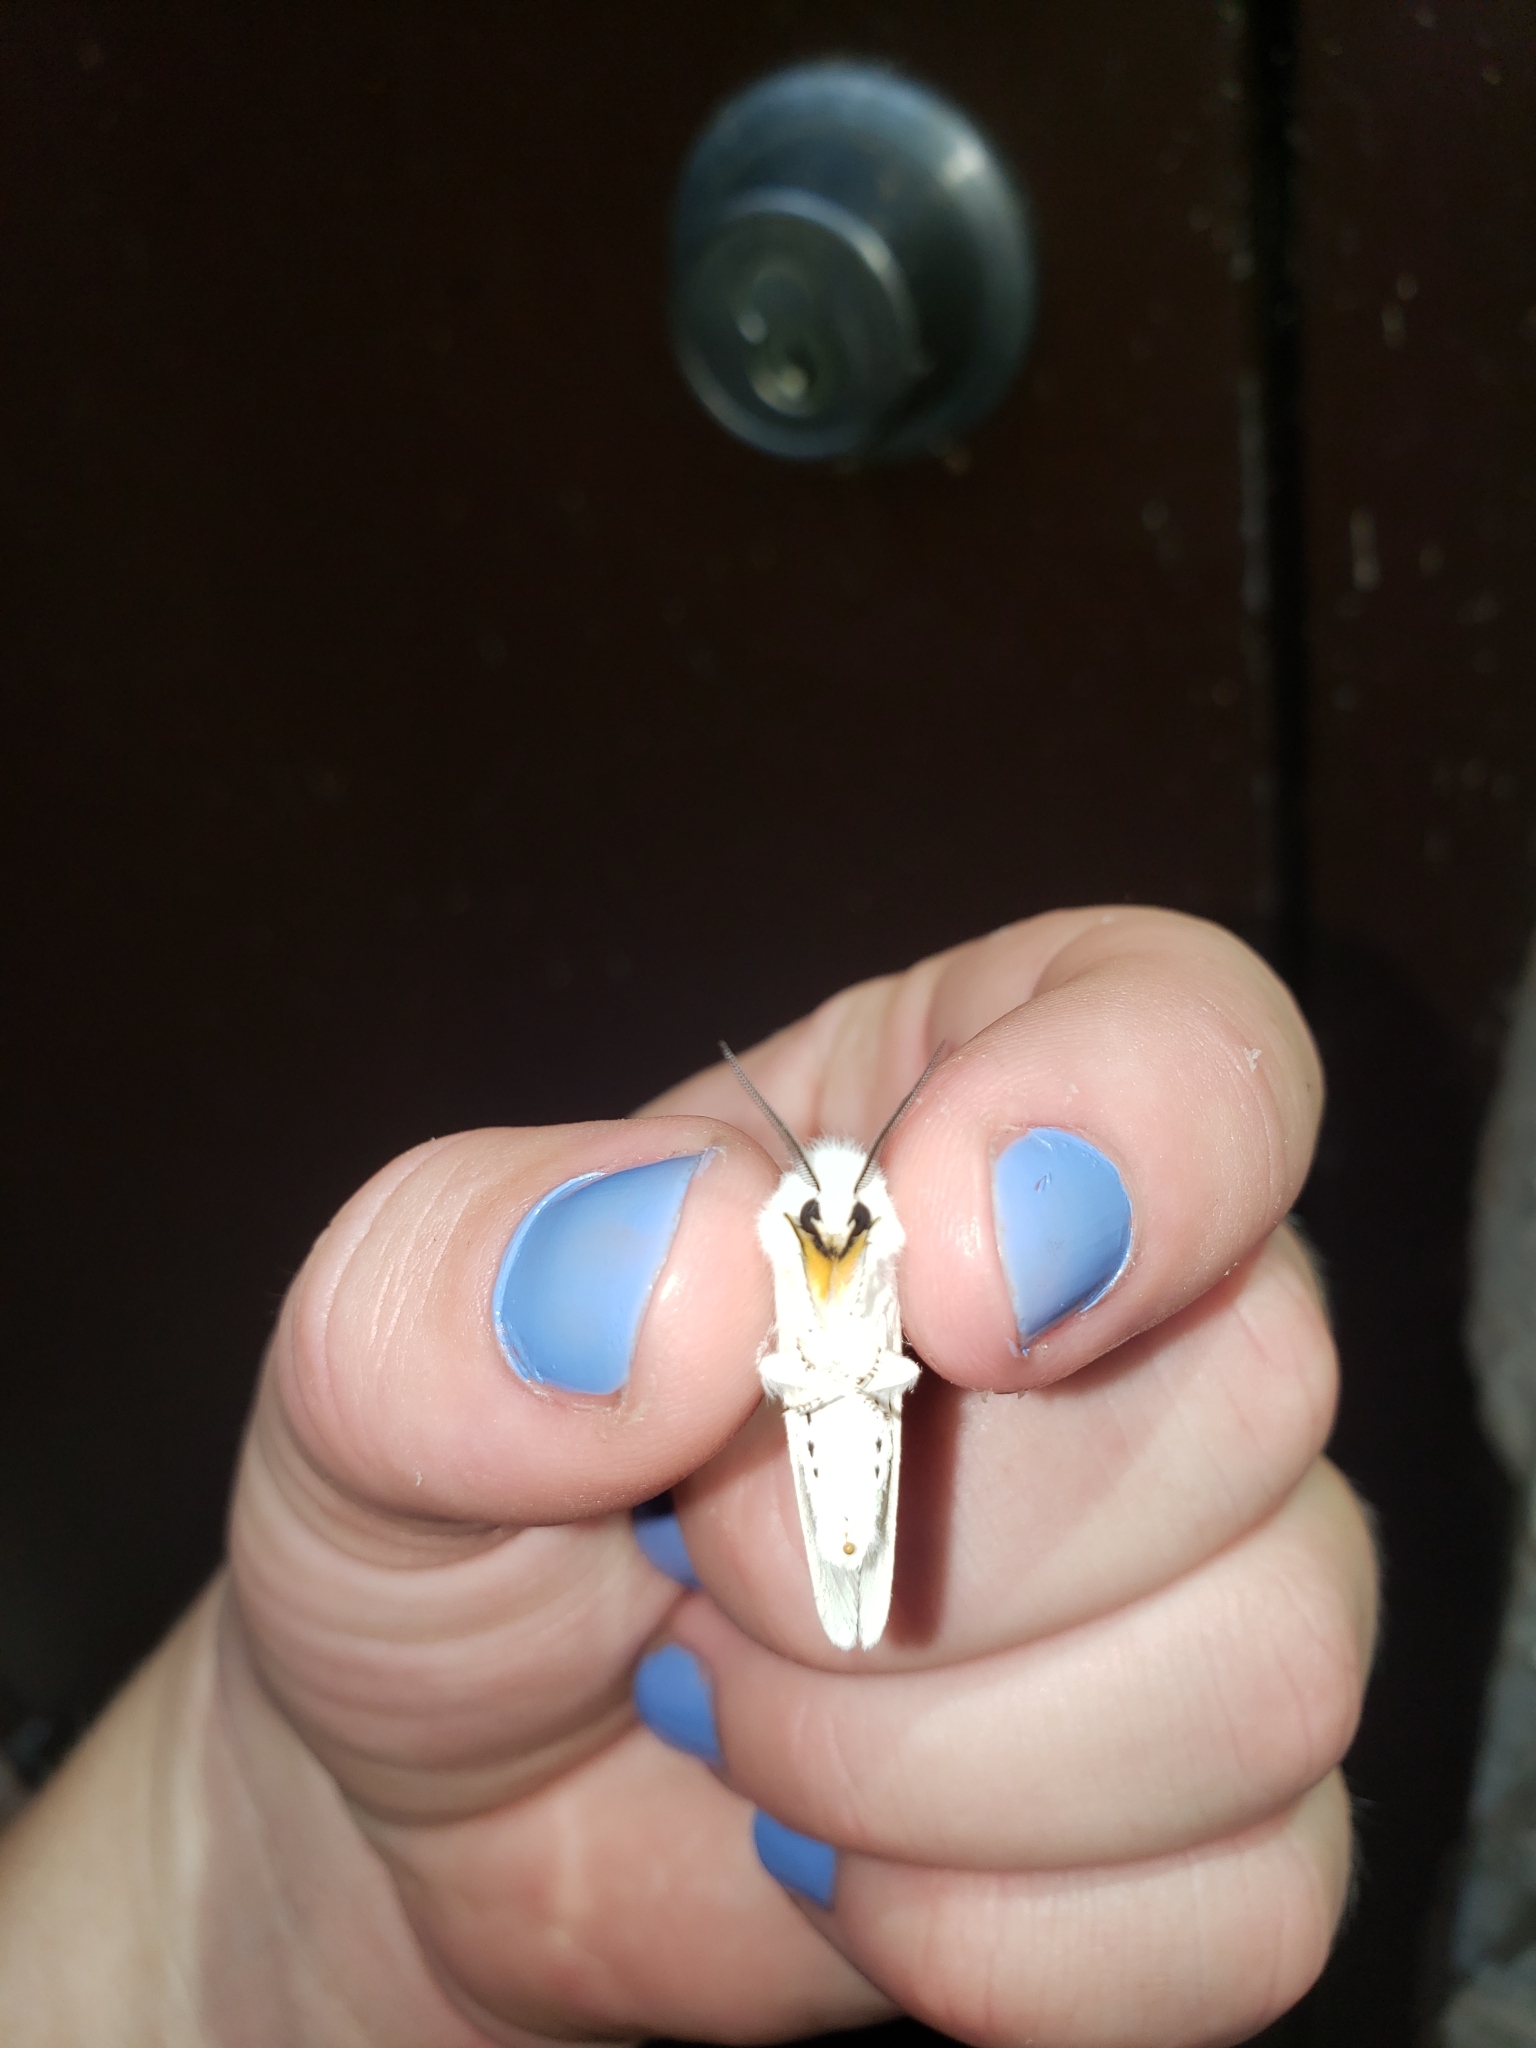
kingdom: Animalia
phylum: Arthropoda
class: Insecta
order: Lepidoptera
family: Erebidae
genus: Spilosoma
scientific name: Spilosoma virginica
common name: Virginia tiger moth
